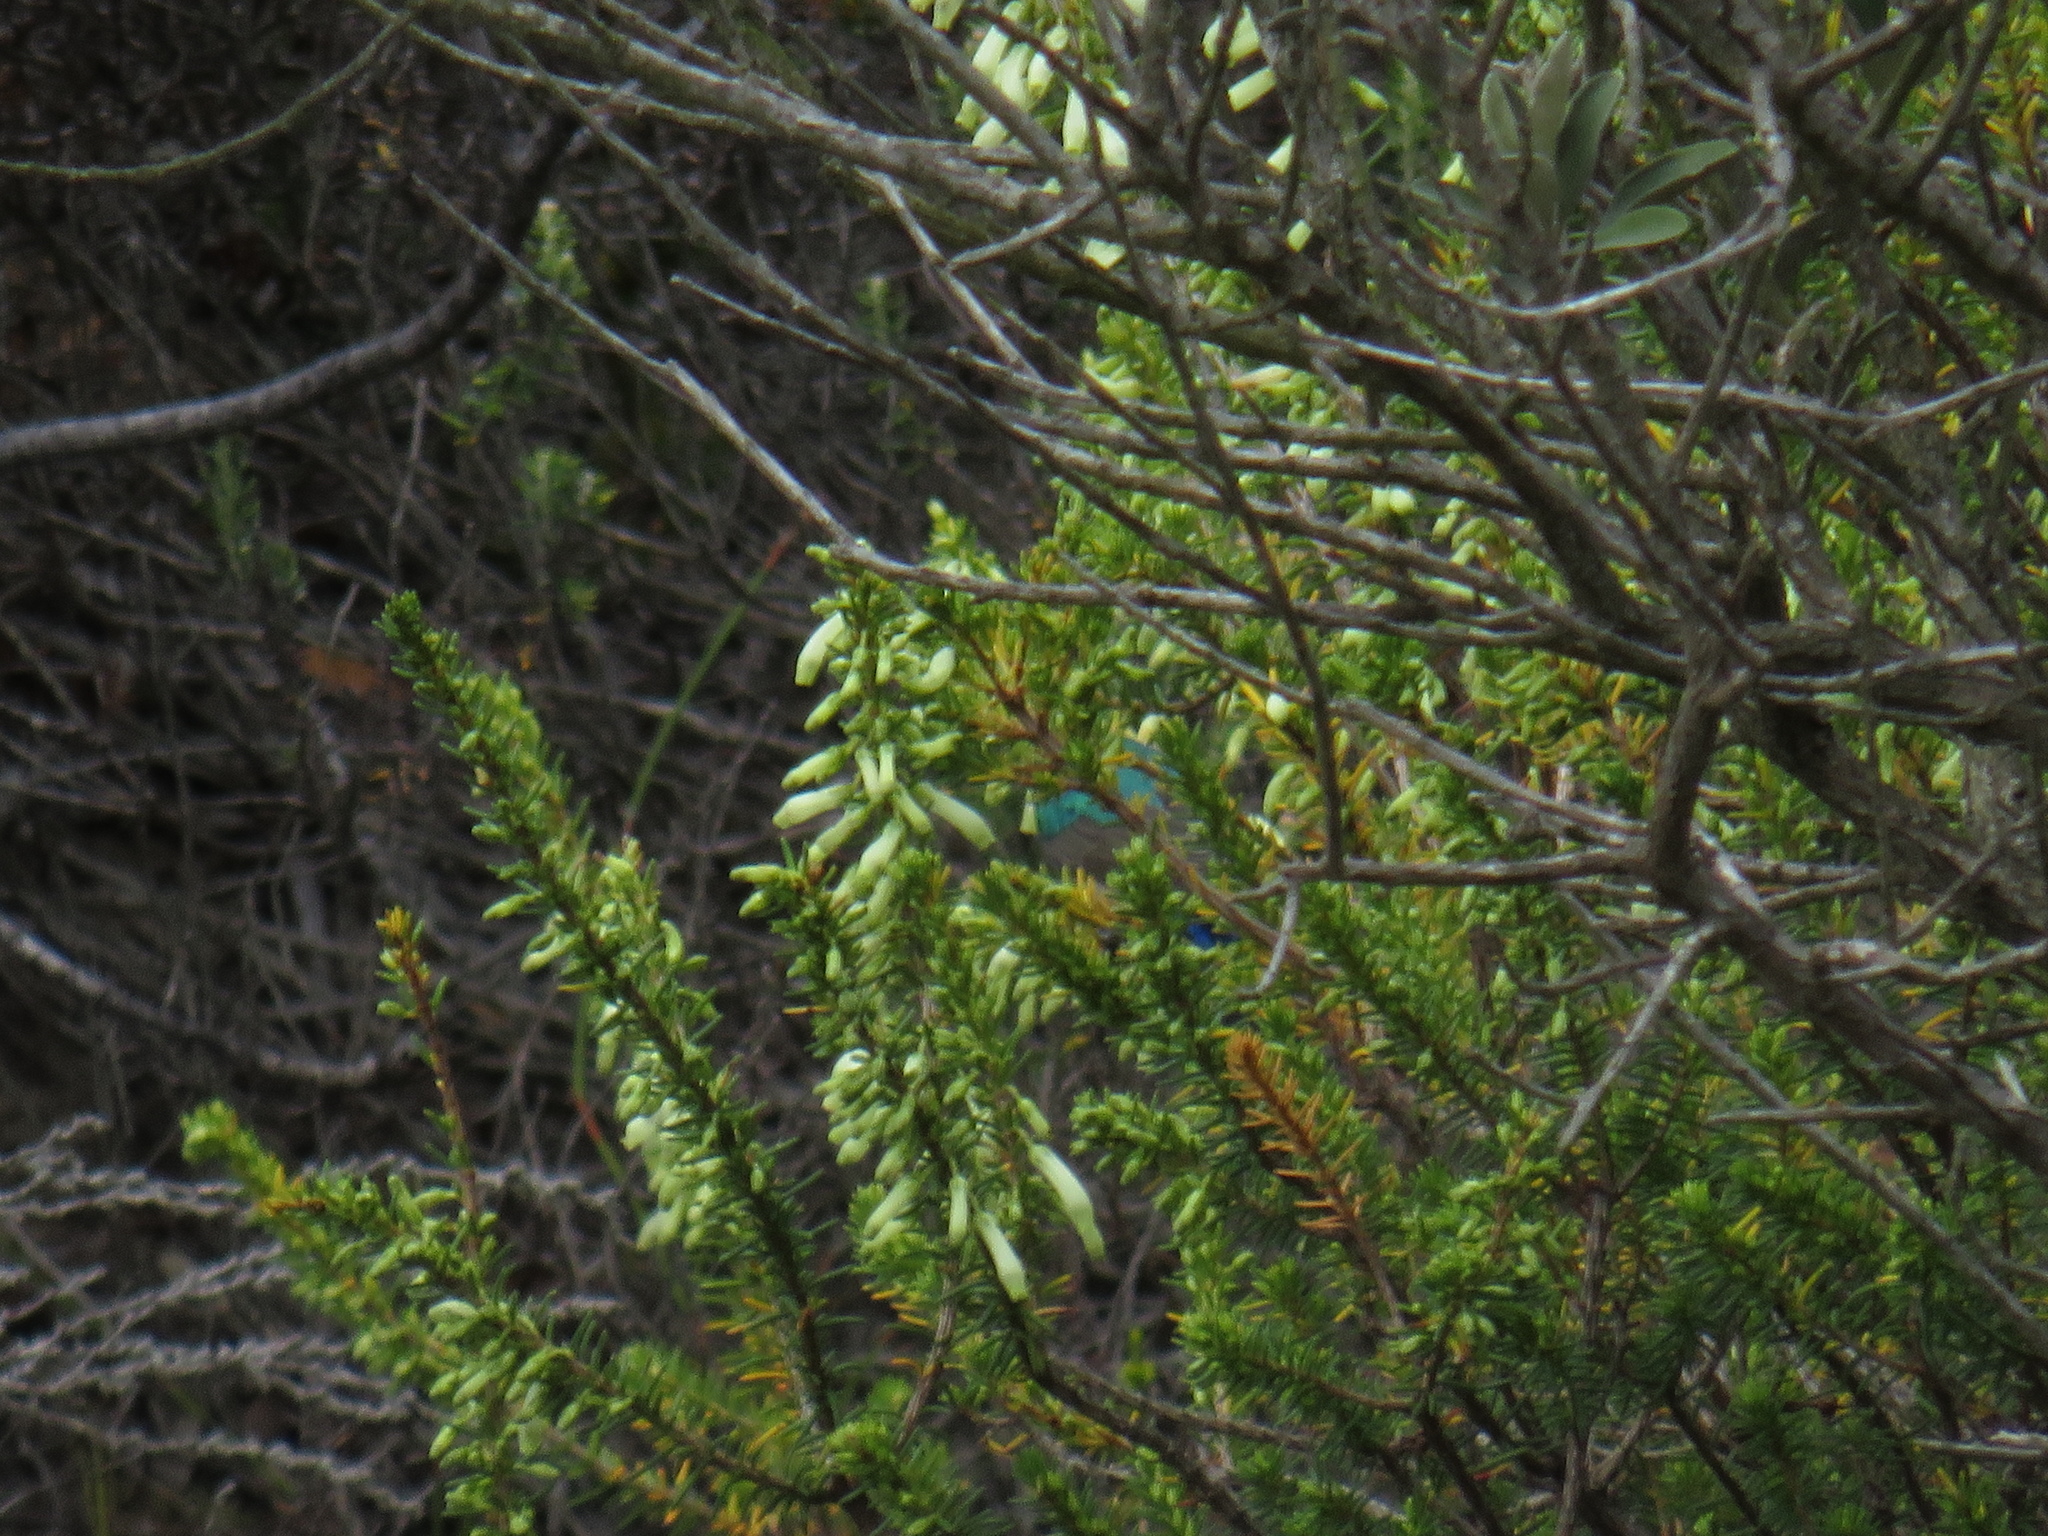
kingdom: Plantae
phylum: Tracheophyta
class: Magnoliopsida
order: Ericales
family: Ericaceae
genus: Erica
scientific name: Erica mammosa
